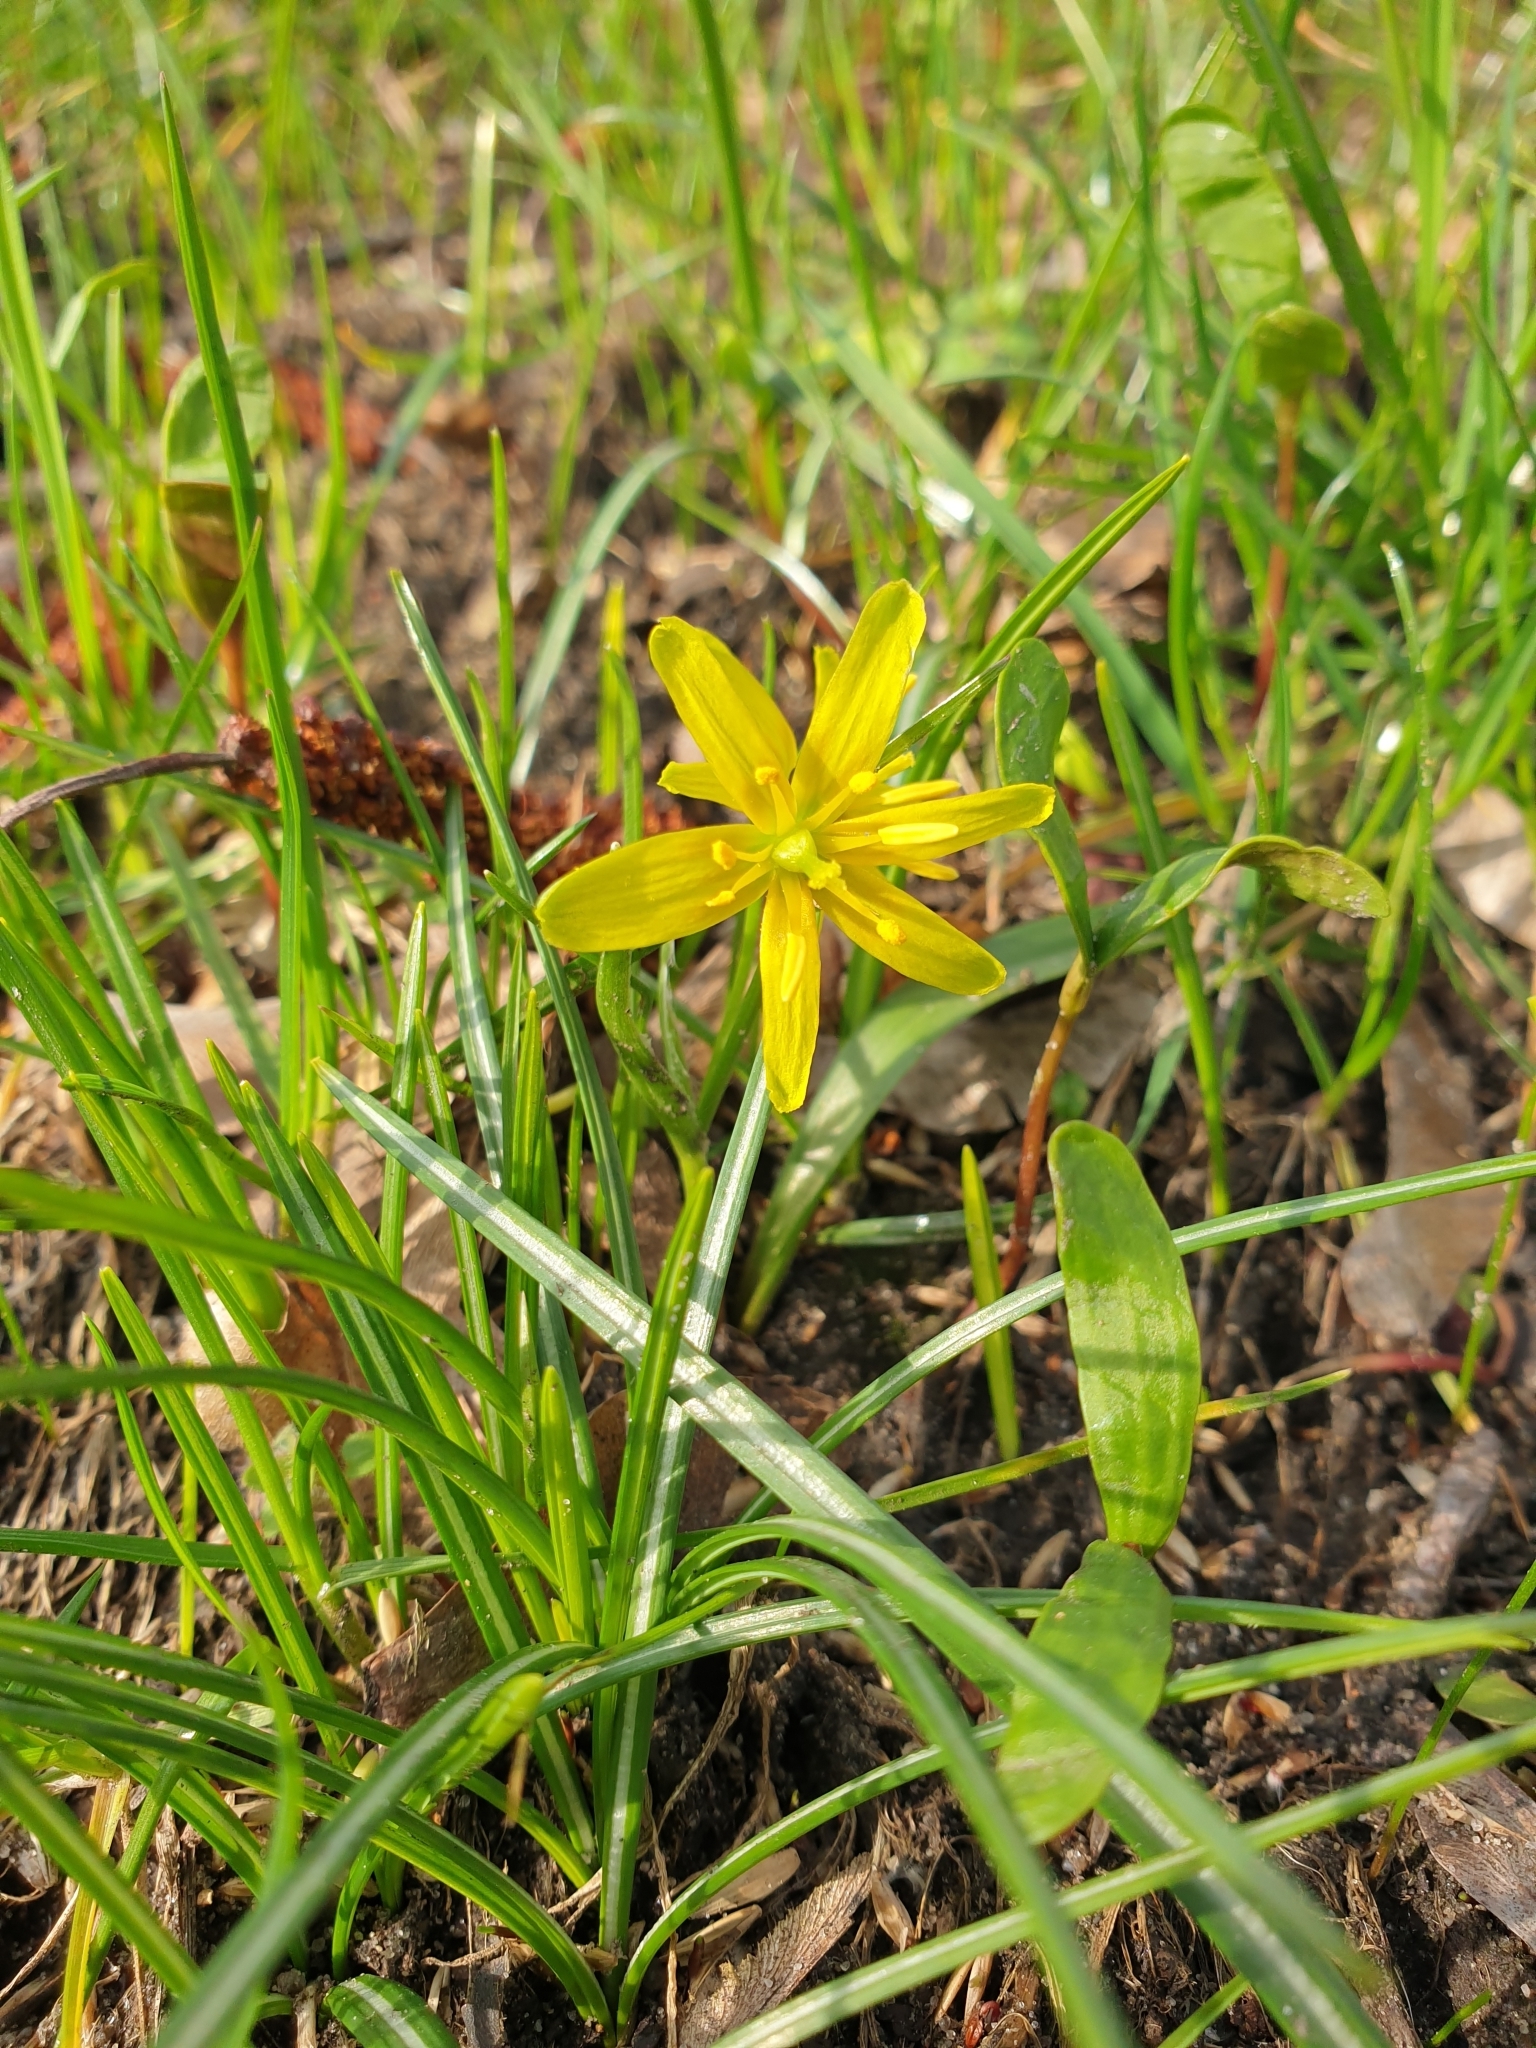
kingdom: Plantae
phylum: Tracheophyta
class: Liliopsida
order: Liliales
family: Liliaceae
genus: Gagea
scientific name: Gagea lutea
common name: Yellow star-of-bethlehem
